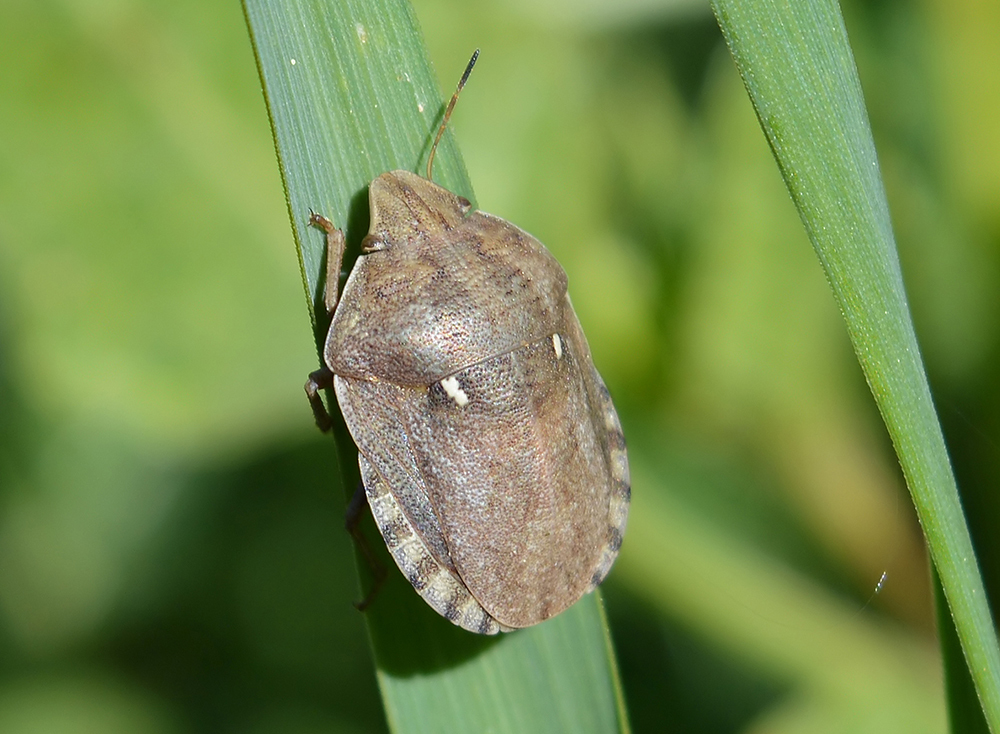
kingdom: Animalia
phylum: Arthropoda
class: Insecta
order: Hemiptera
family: Scutelleridae
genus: Eurygaster
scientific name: Eurygaster maura
